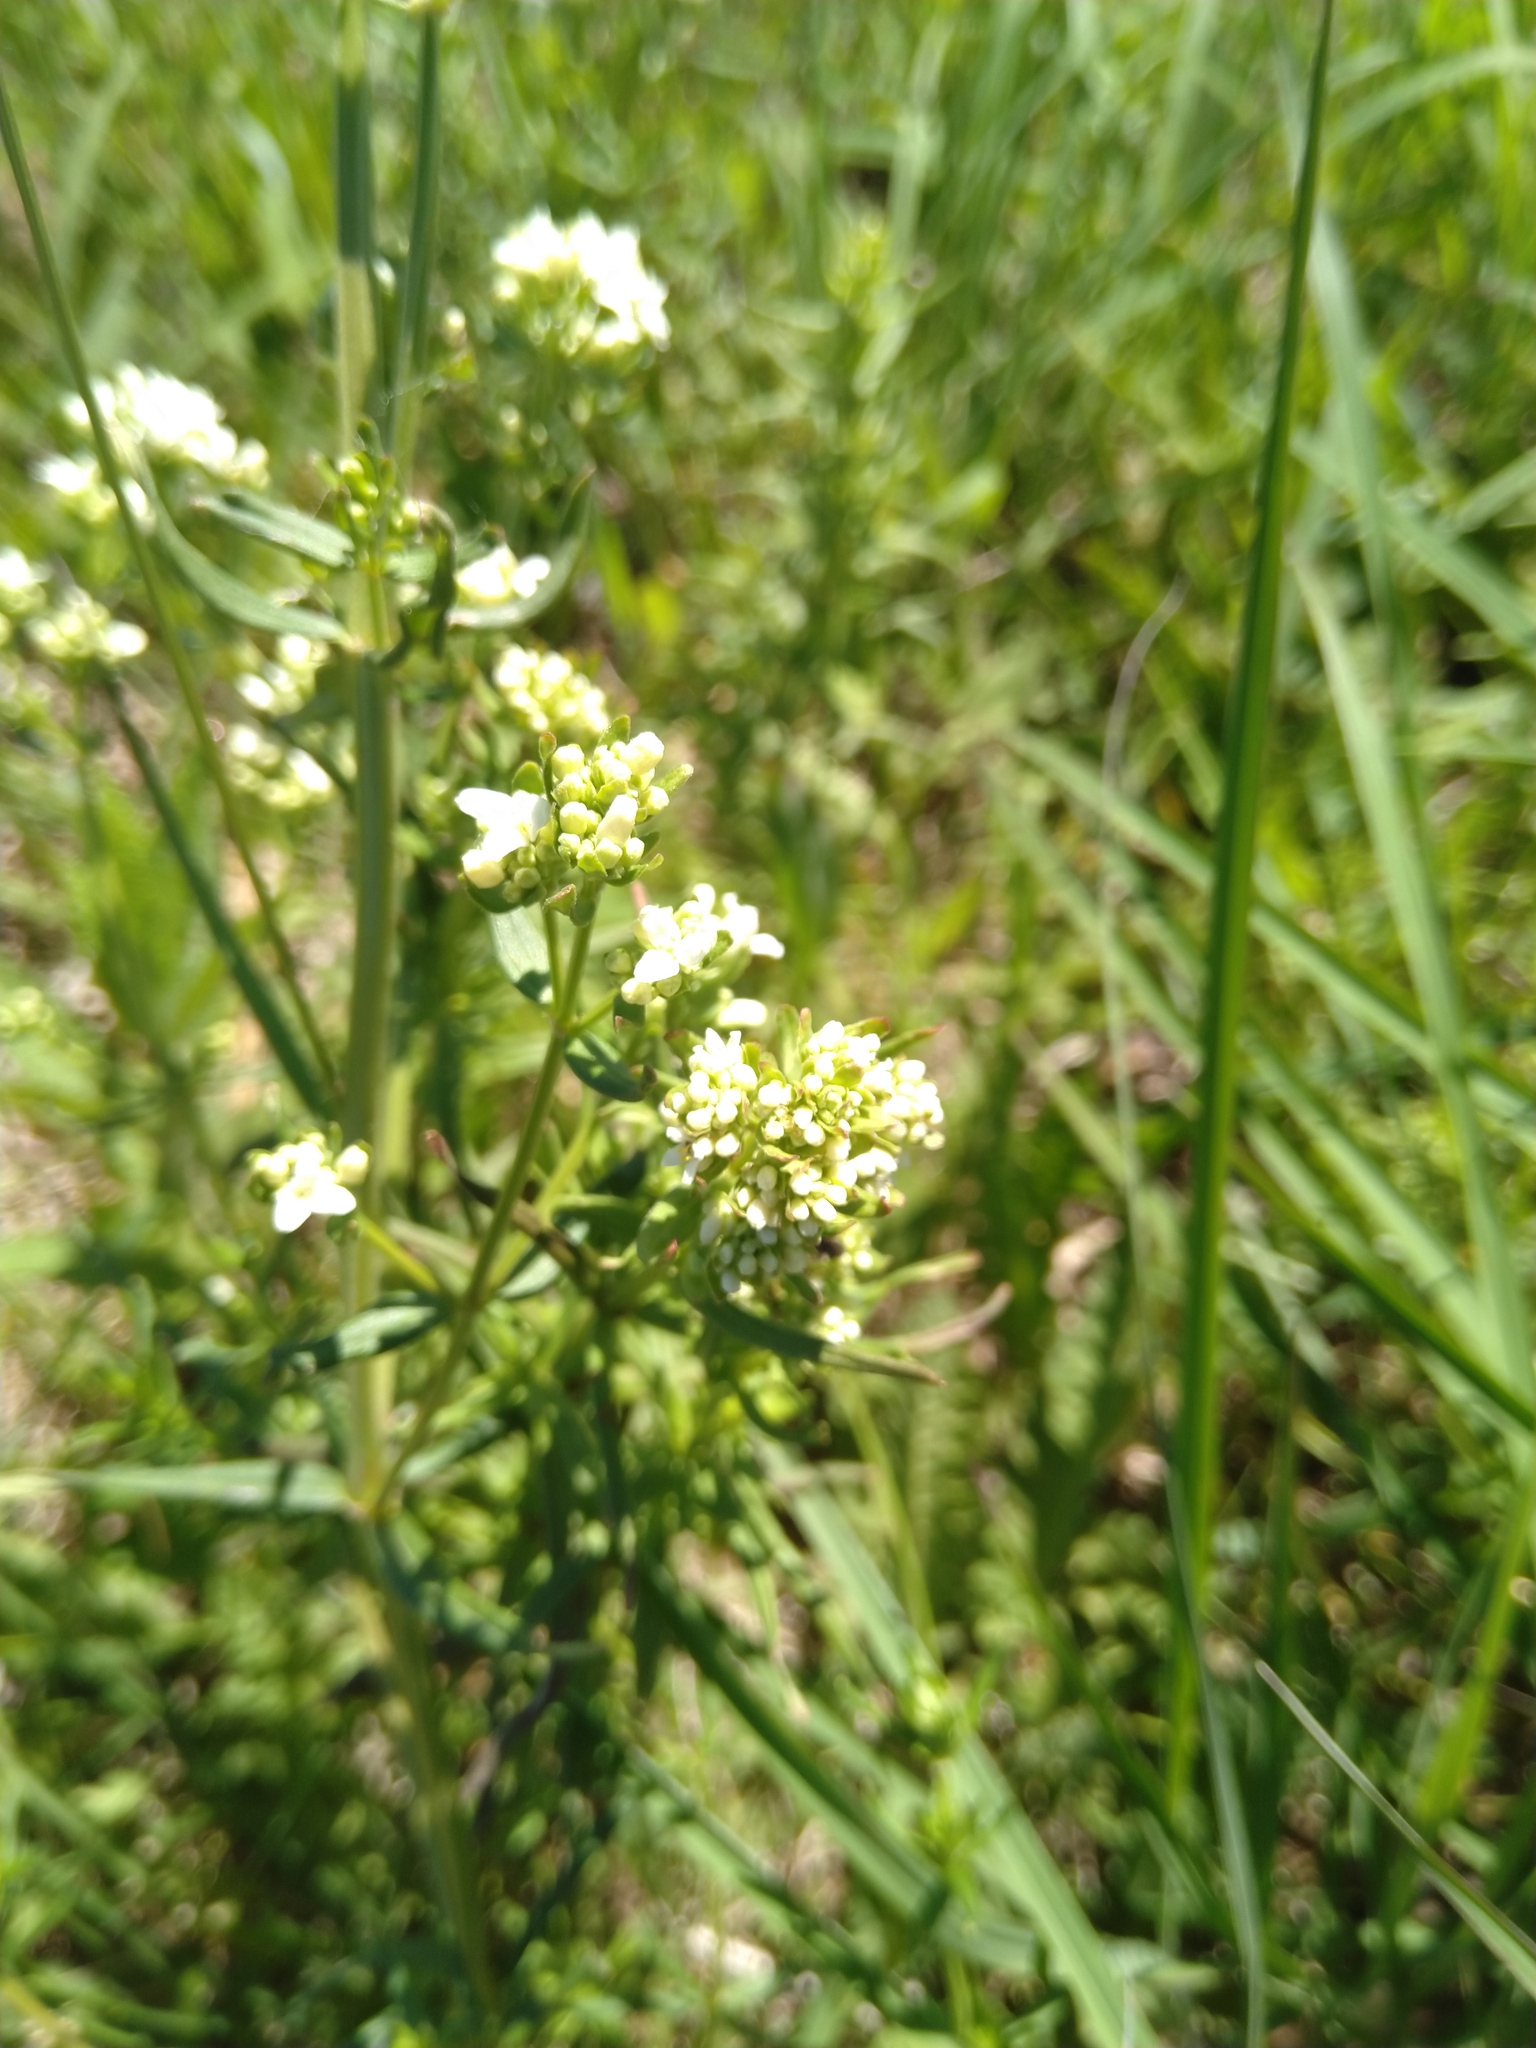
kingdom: Plantae
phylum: Tracheophyta
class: Magnoliopsida
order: Gentianales
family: Rubiaceae
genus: Galium
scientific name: Galium boreale
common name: Northern bedstraw
